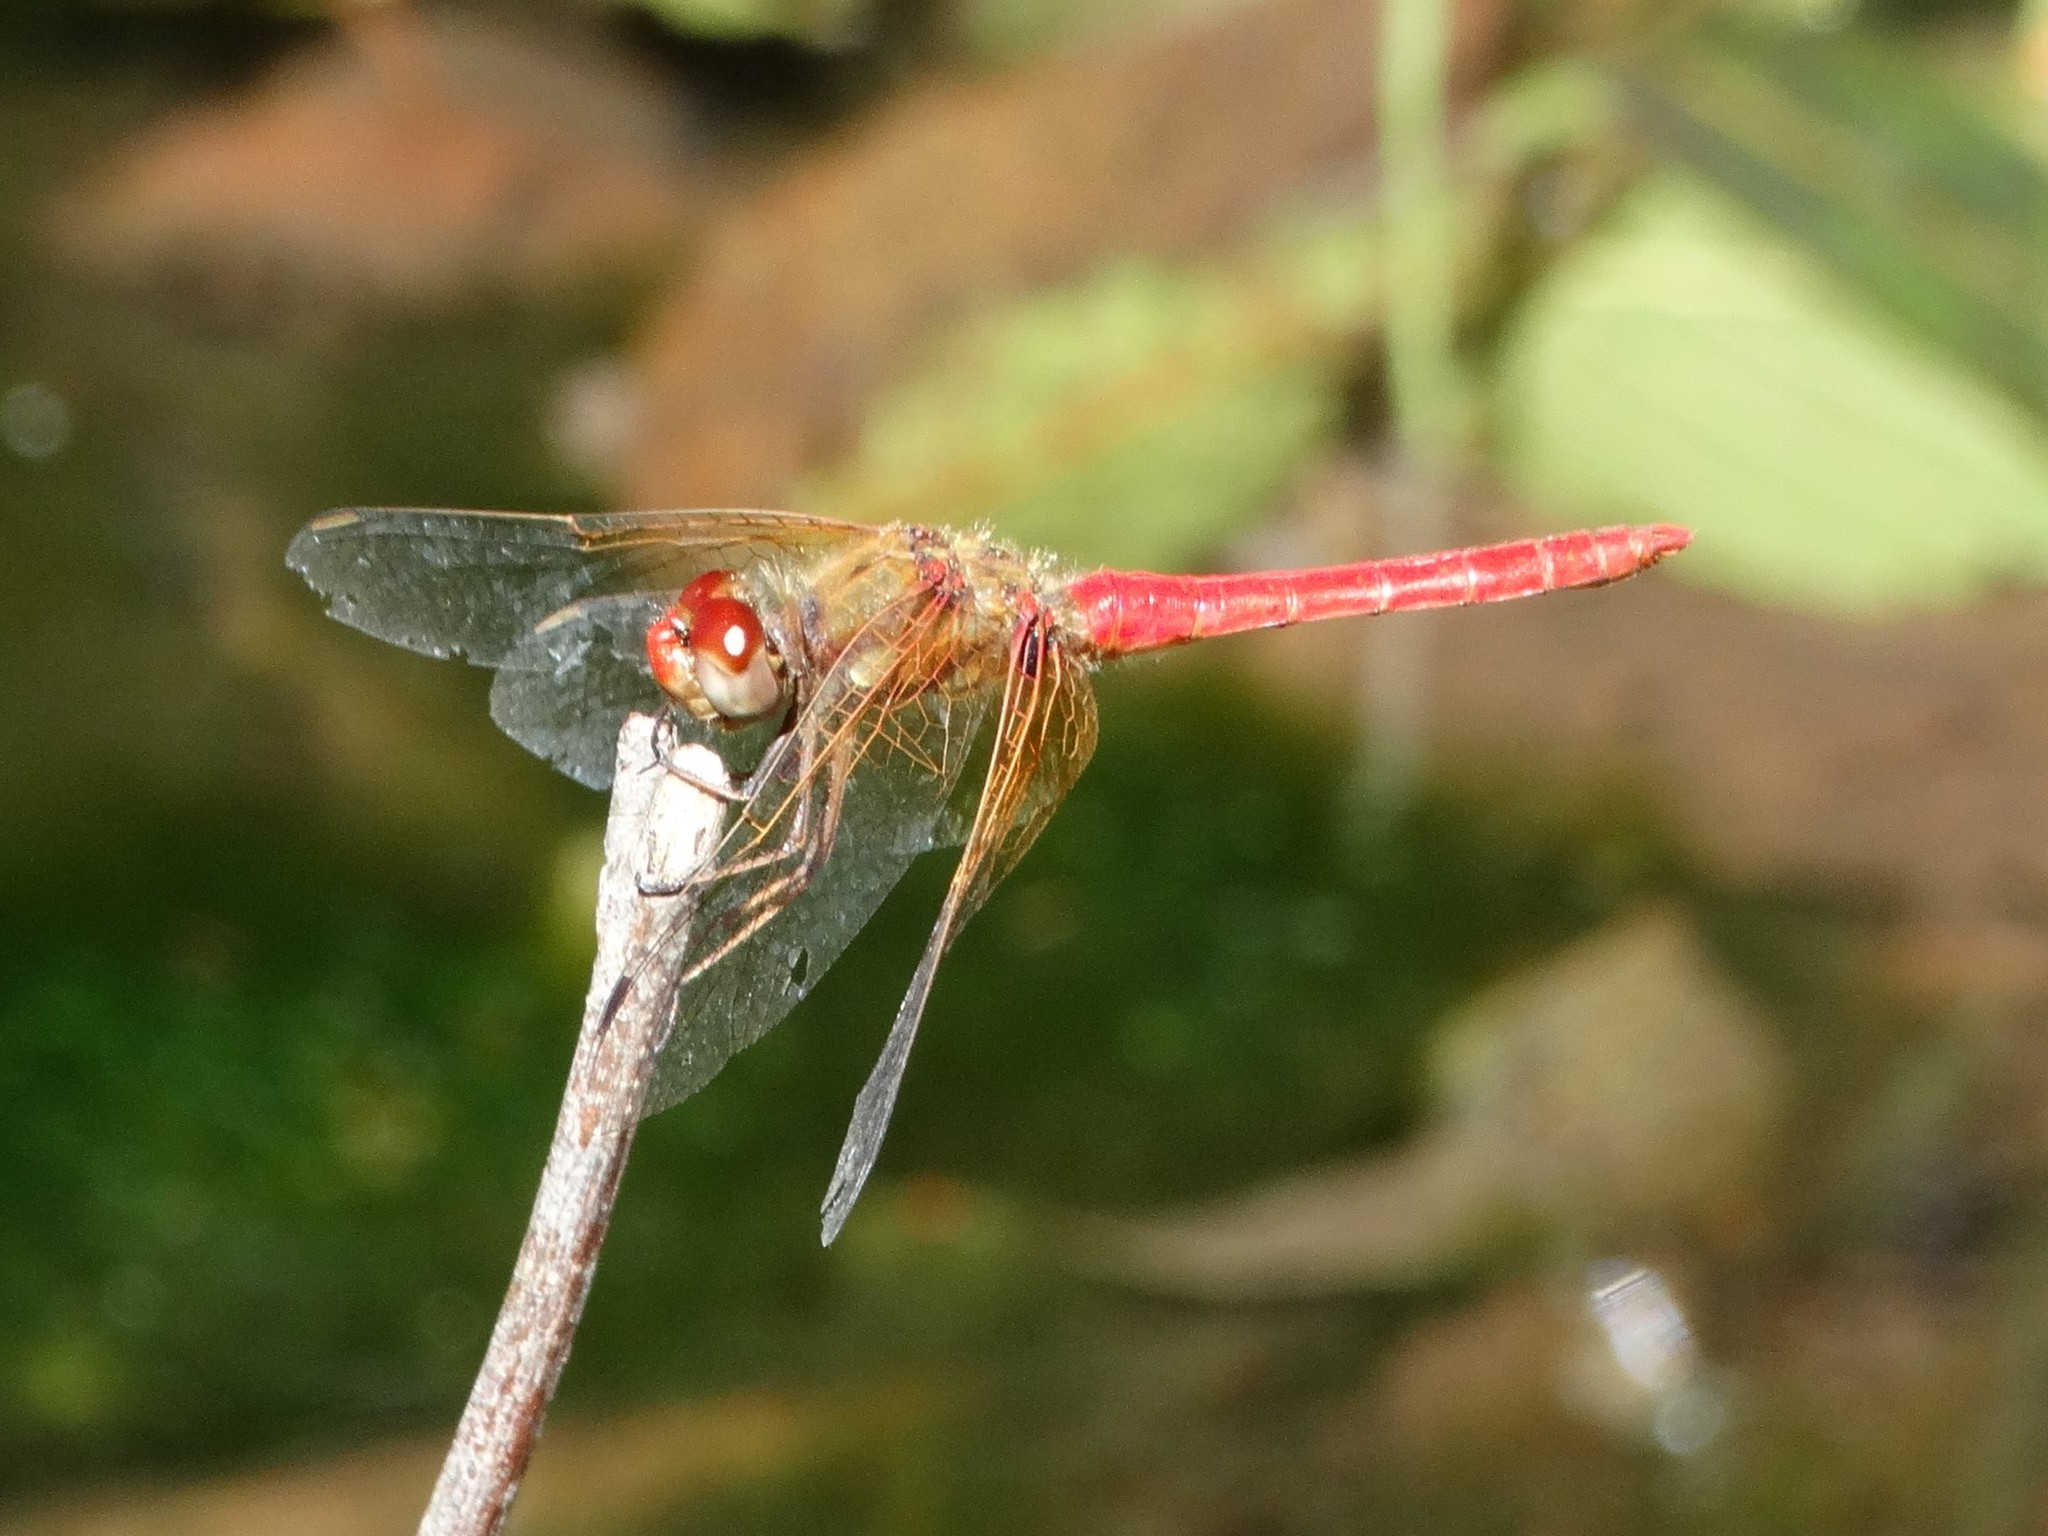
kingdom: Animalia
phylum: Arthropoda
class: Insecta
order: Odonata
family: Libellulidae
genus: Sympetrum
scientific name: Sympetrum illotum
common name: Cardinal meadowhawk
